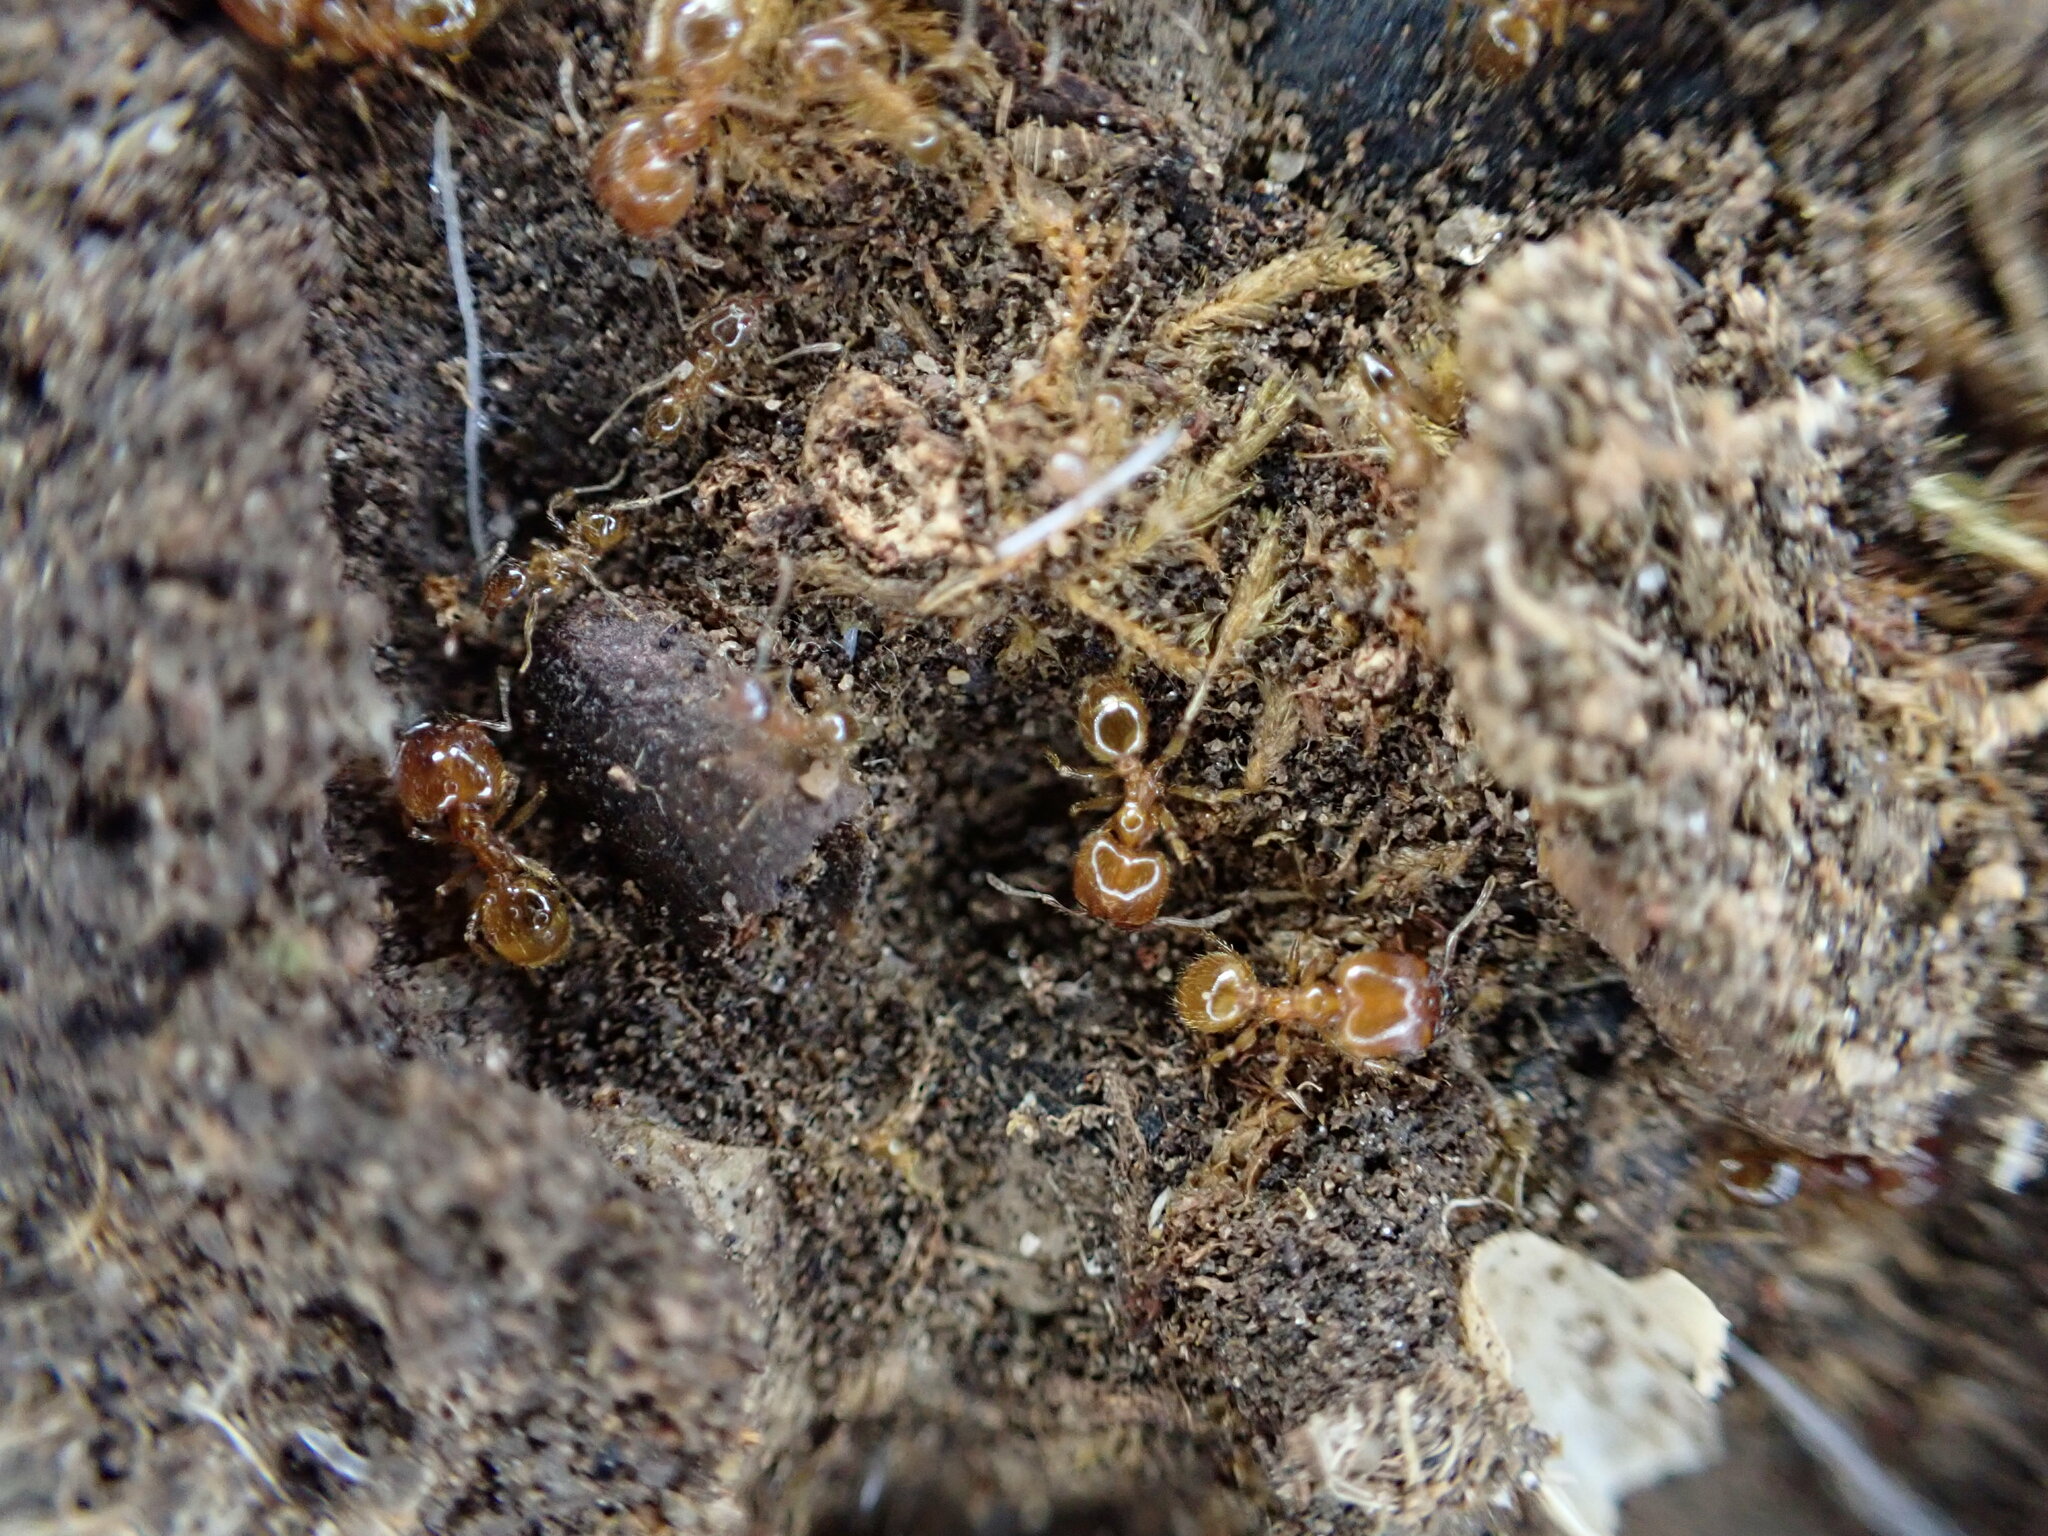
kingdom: Animalia
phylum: Arthropoda
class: Insecta
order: Hymenoptera
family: Formicidae
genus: Pheidole
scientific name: Pheidole pallidula
